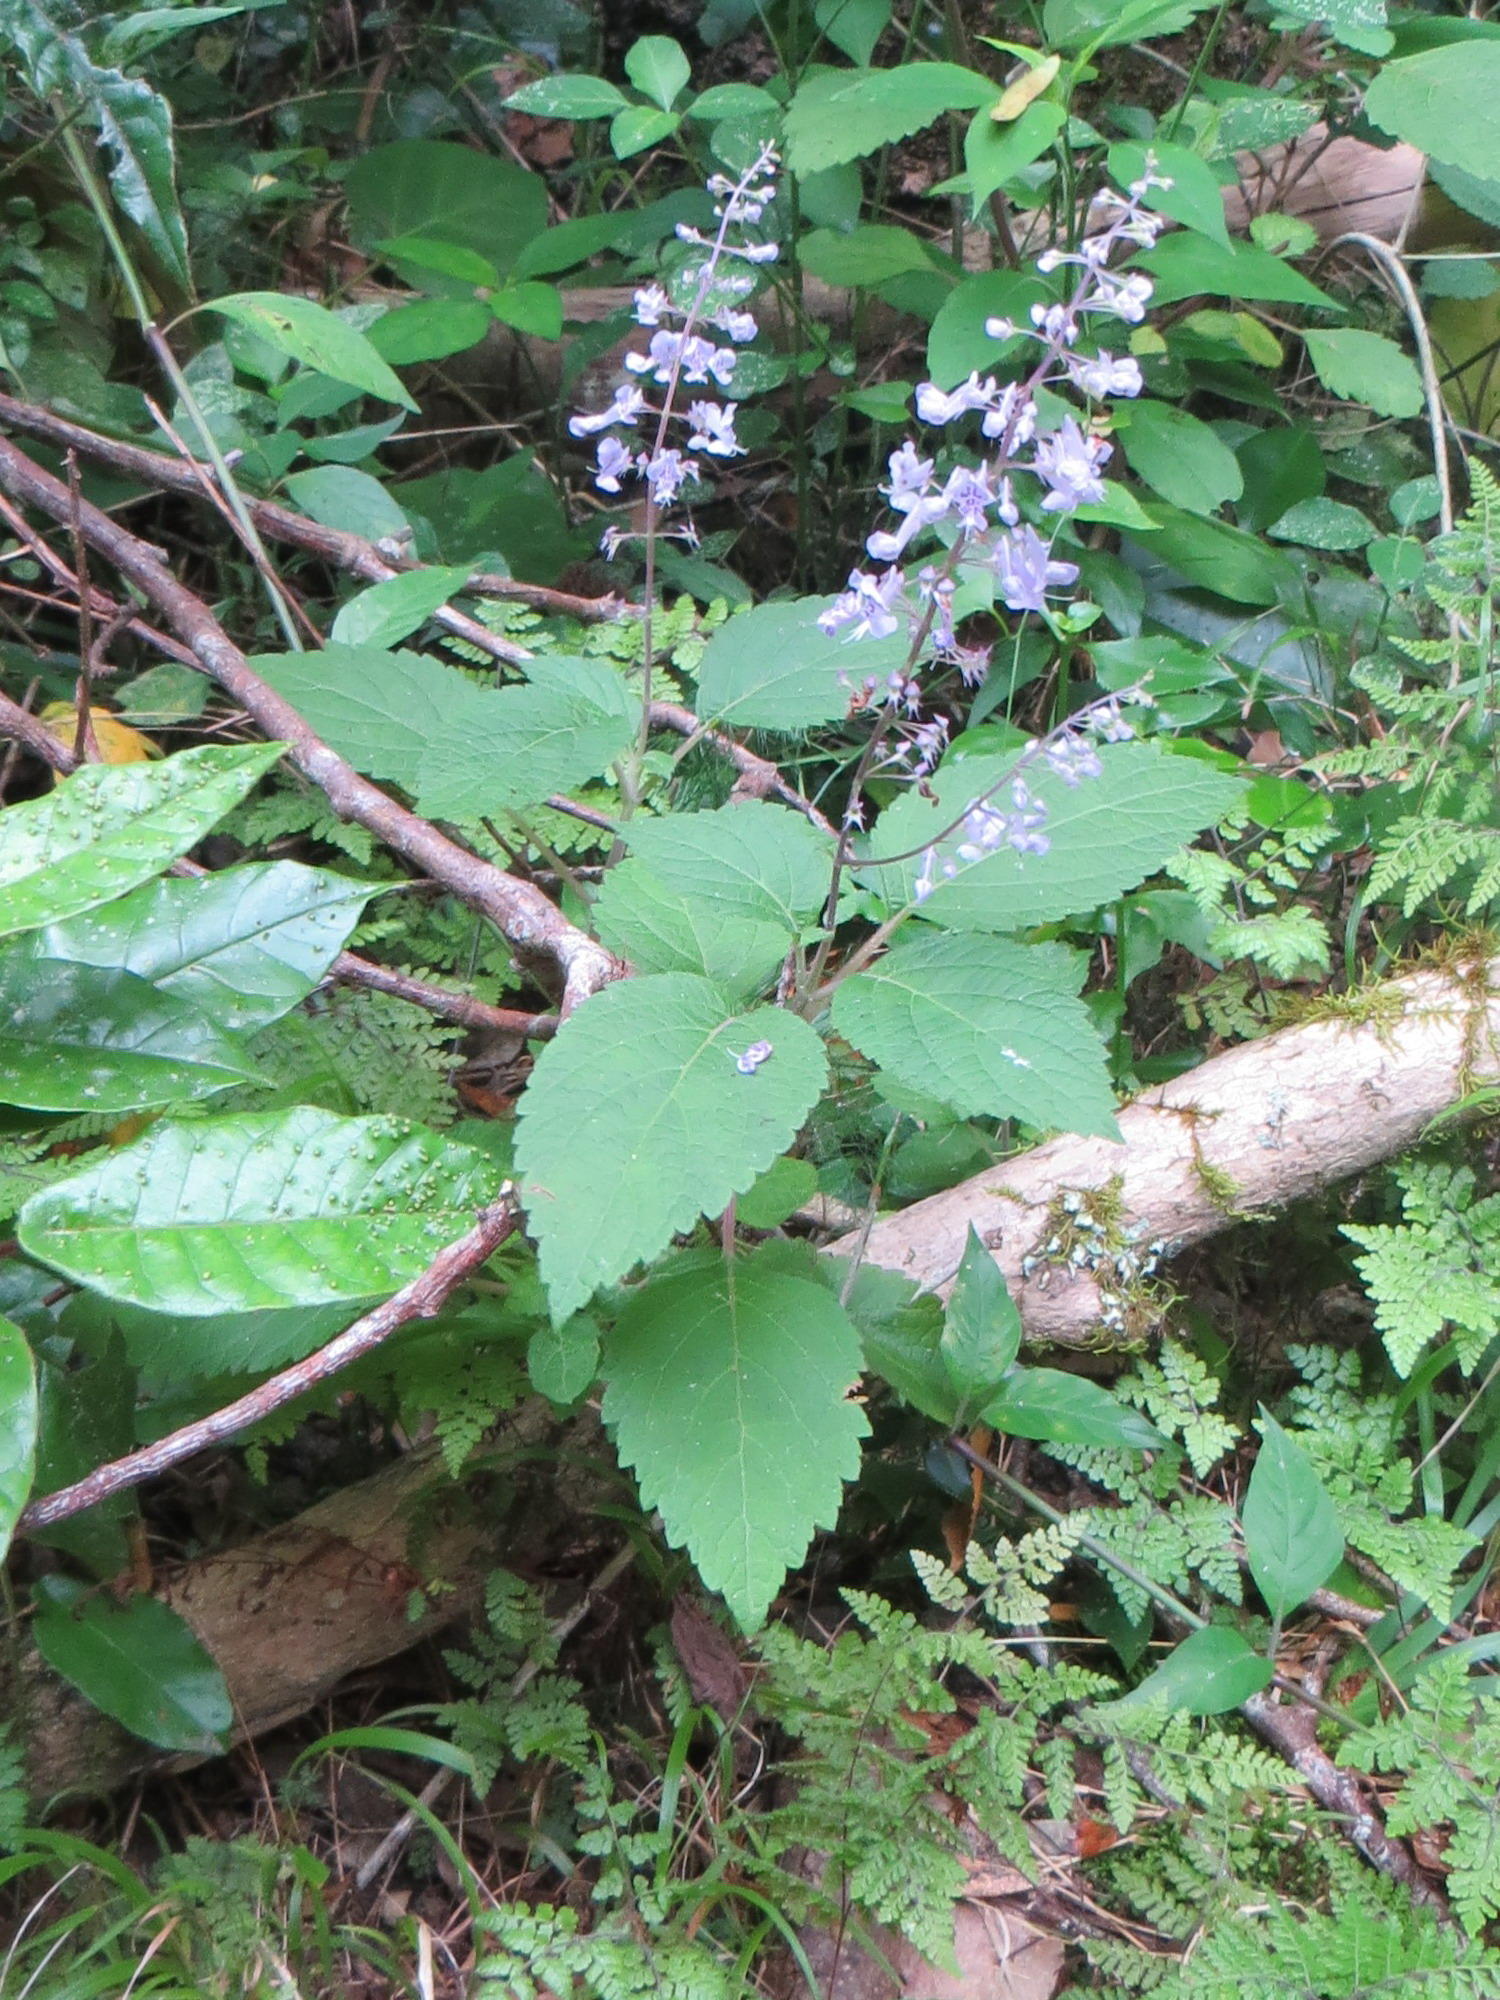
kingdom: Plantae
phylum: Tracheophyta
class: Magnoliopsida
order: Lamiales
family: Lamiaceae
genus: Plectranthus
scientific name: Plectranthus fruticosus
